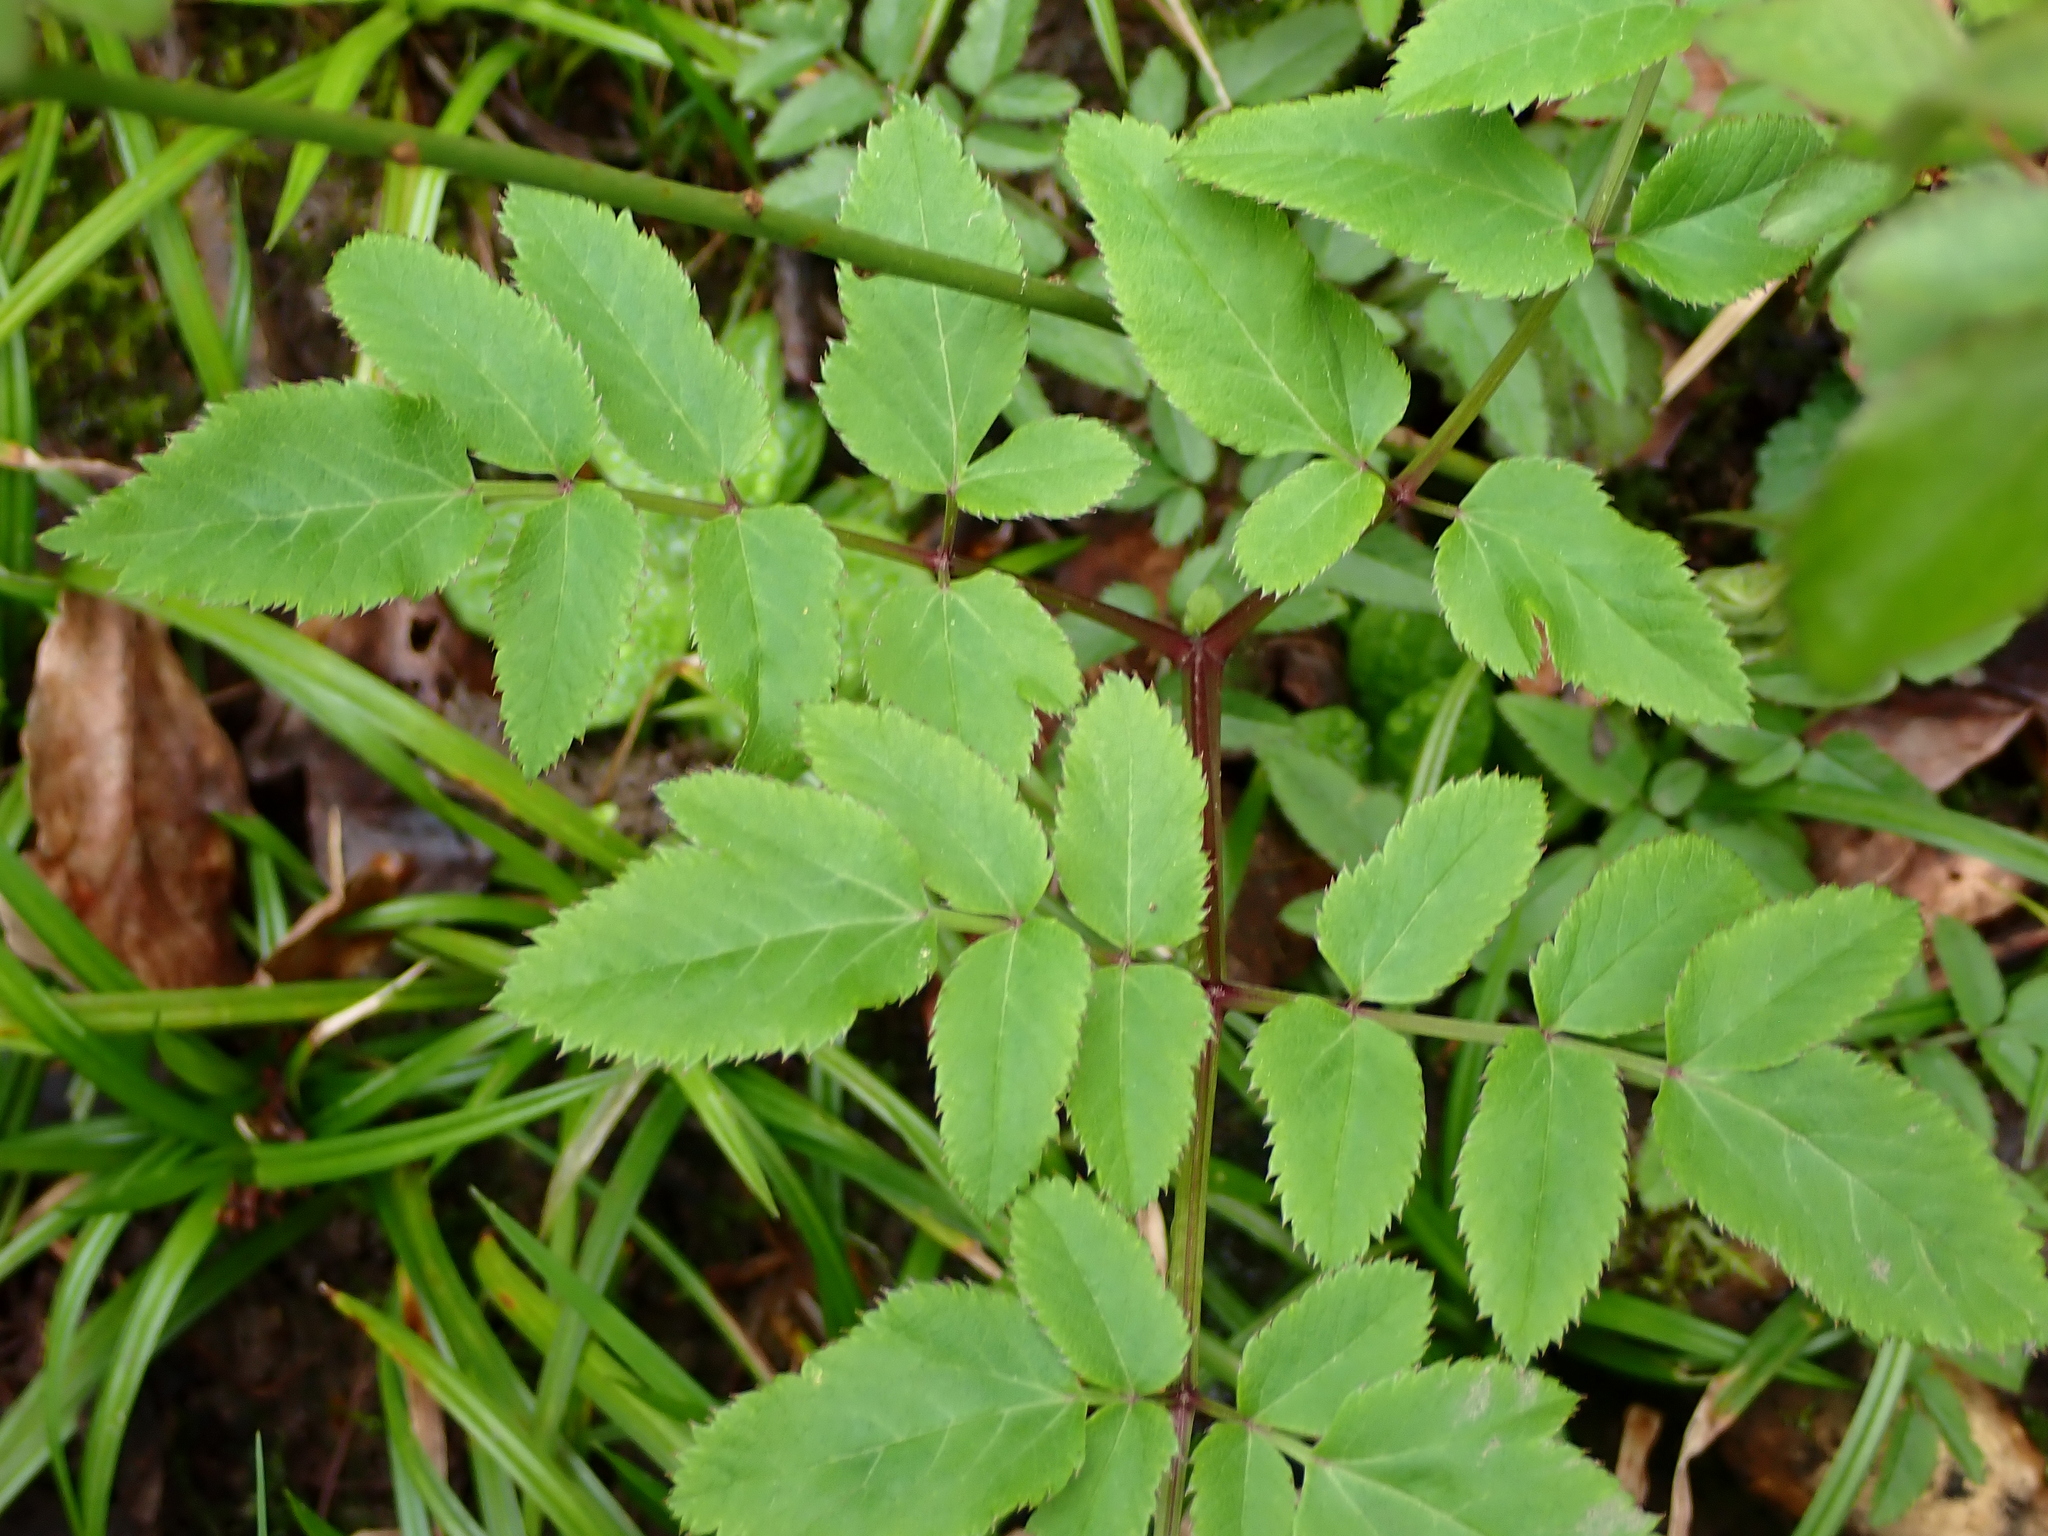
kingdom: Plantae
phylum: Tracheophyta
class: Magnoliopsida
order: Apiales
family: Apiaceae
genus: Angelica
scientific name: Angelica sylvestris
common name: Wild angelica
